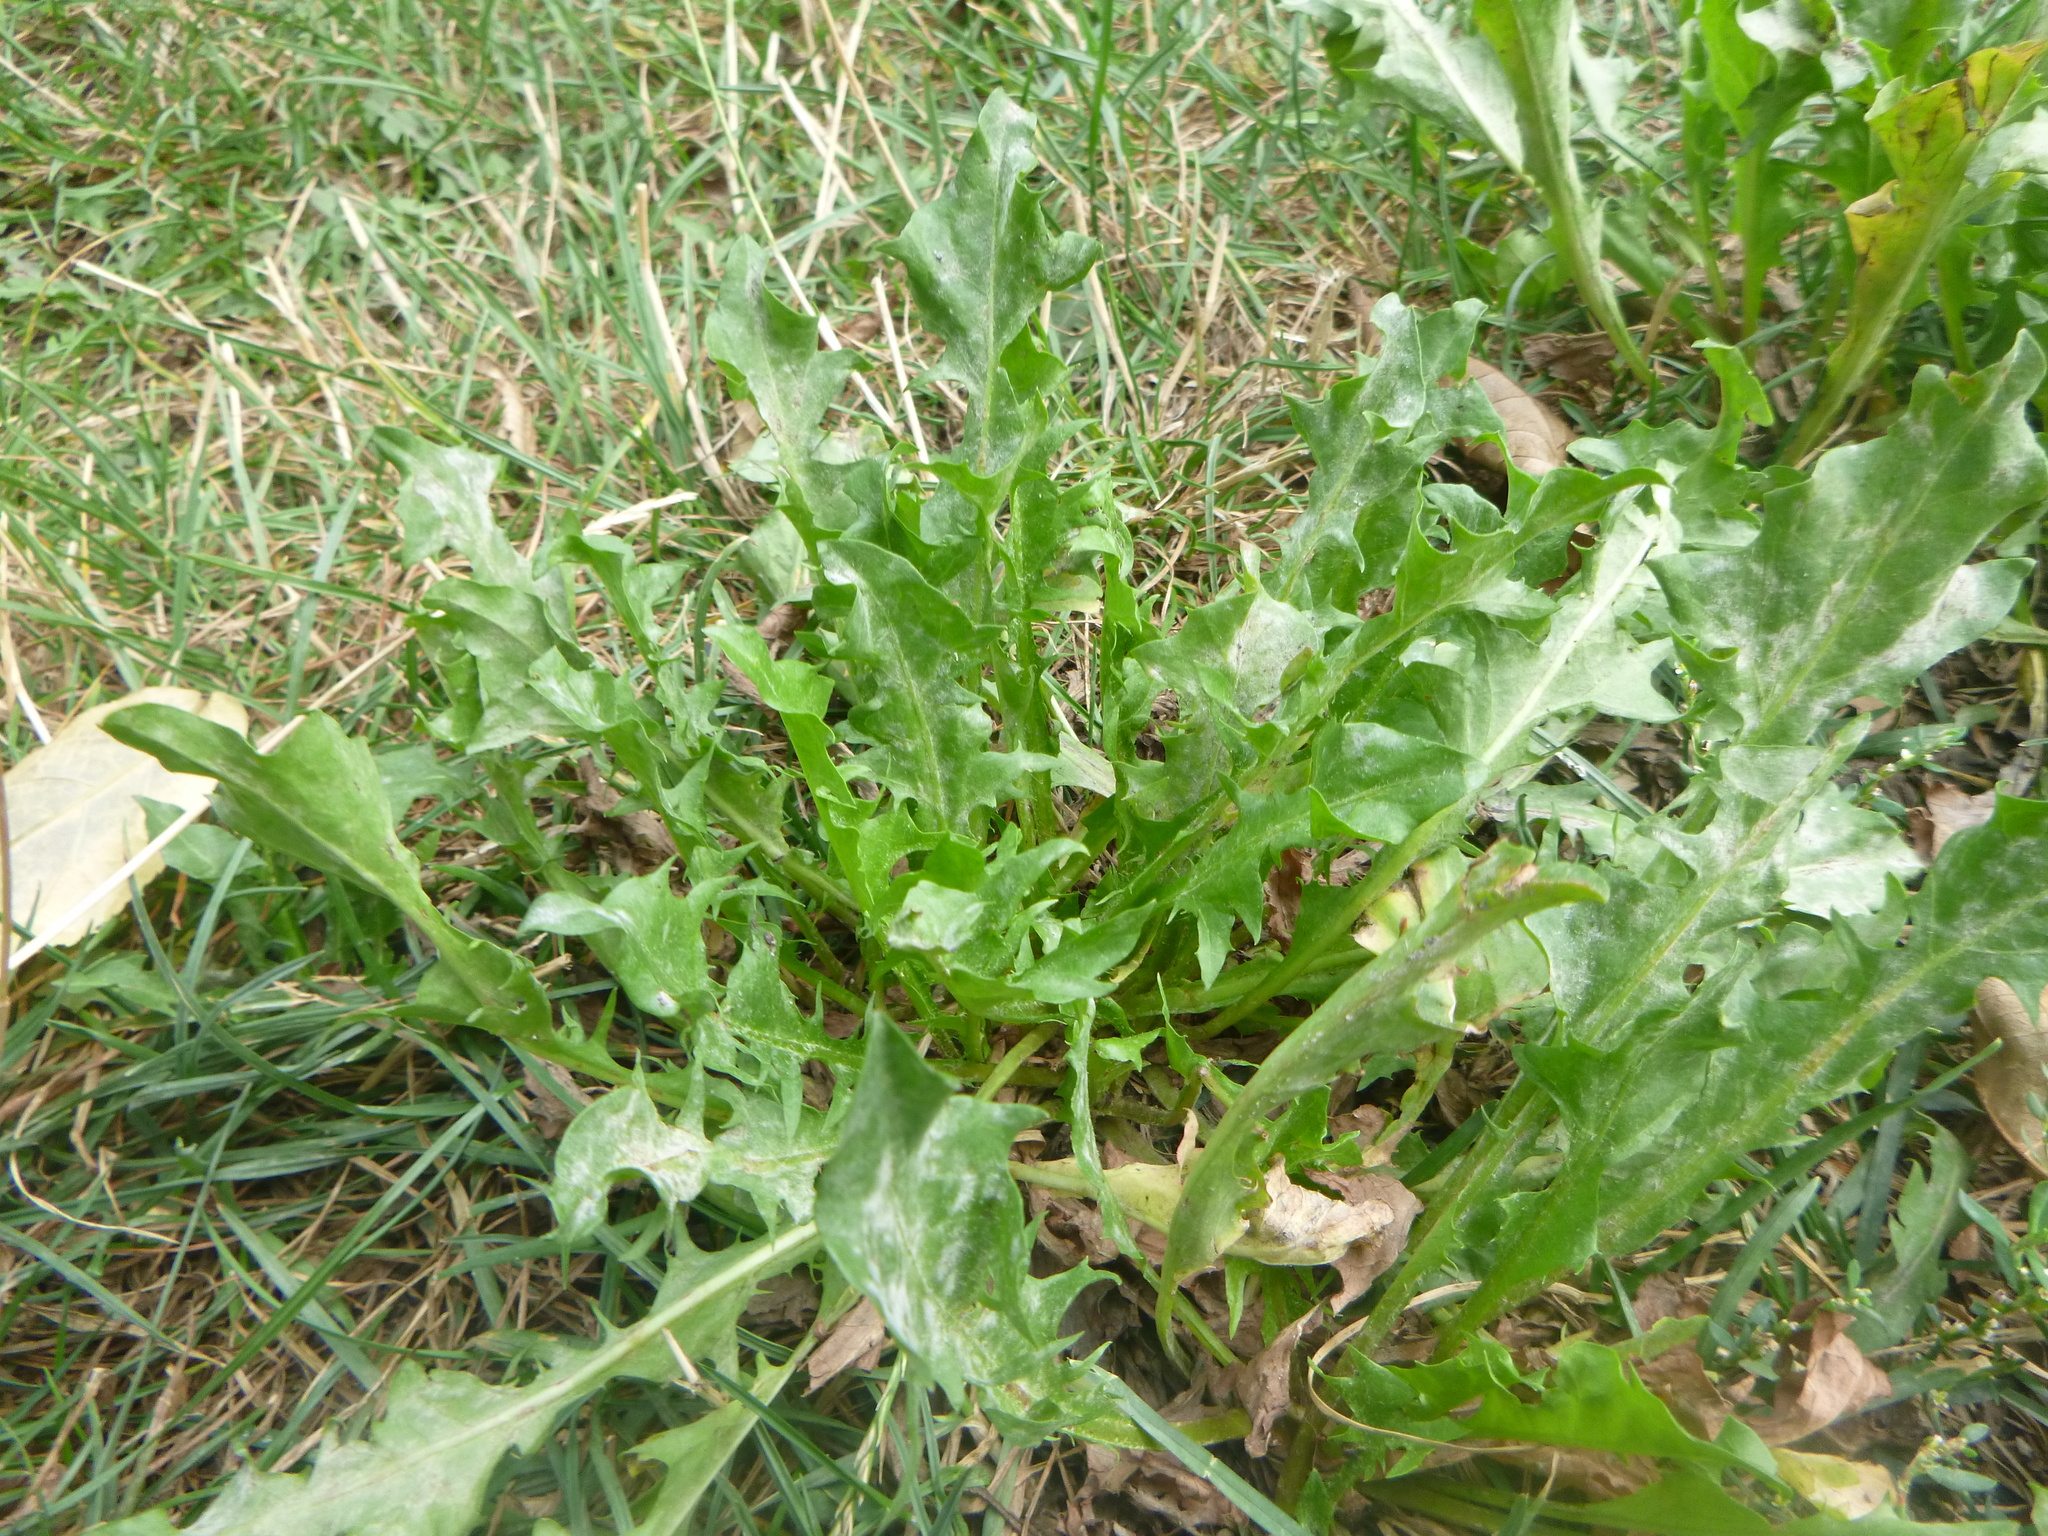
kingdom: Plantae
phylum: Tracheophyta
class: Magnoliopsida
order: Asterales
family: Asteraceae
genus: Taraxacum
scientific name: Taraxacum officinale
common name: Common dandelion
